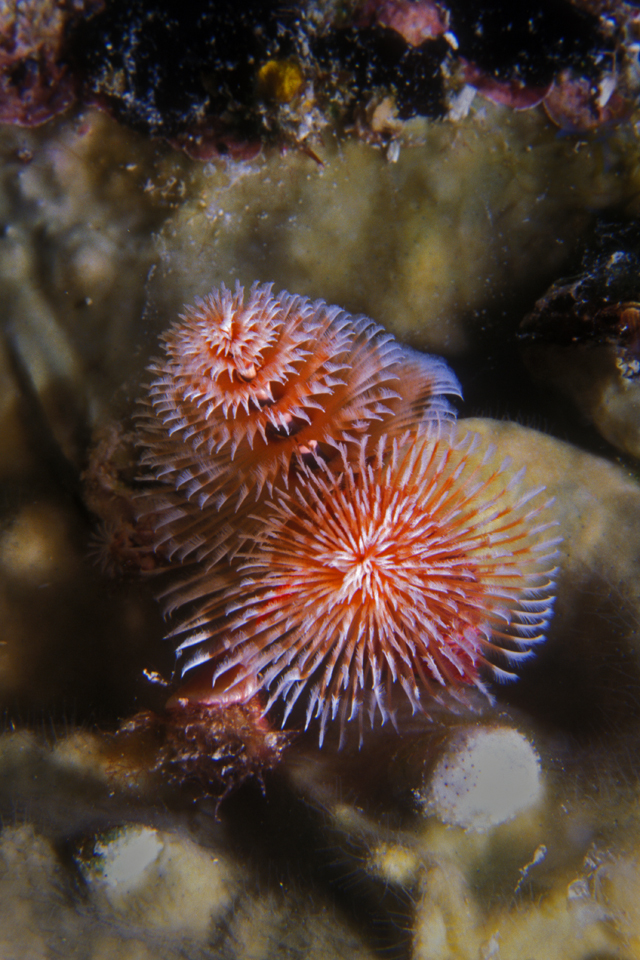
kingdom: Animalia
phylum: Annelida
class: Polychaeta
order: Sabellida
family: Serpulidae
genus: Spirobranchus
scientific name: Spirobranchus giganteus
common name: Christmas tree worm
